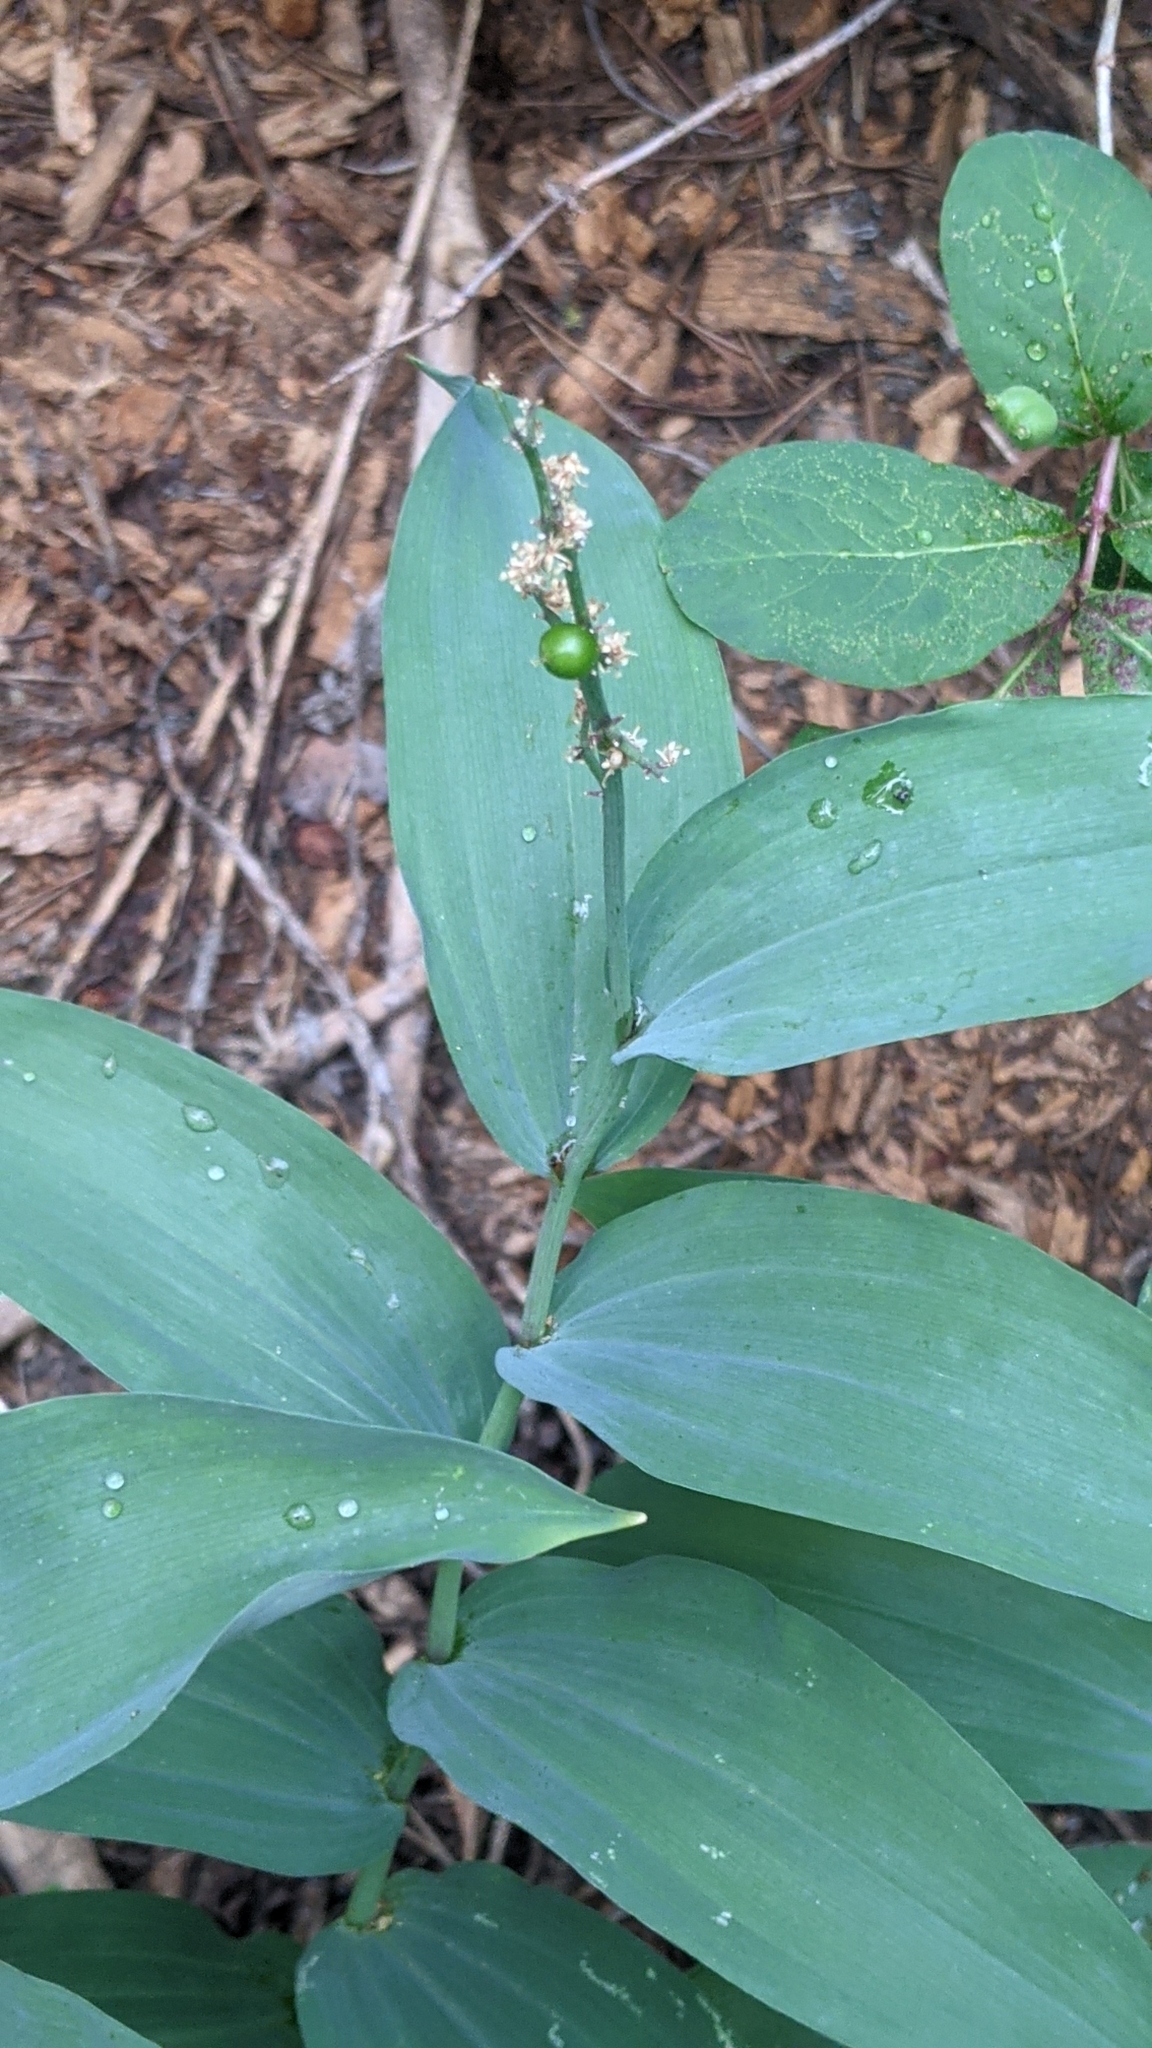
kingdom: Plantae
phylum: Tracheophyta
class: Liliopsida
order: Asparagales
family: Asparagaceae
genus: Maianthemum
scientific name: Maianthemum racemosum
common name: False spikenard
